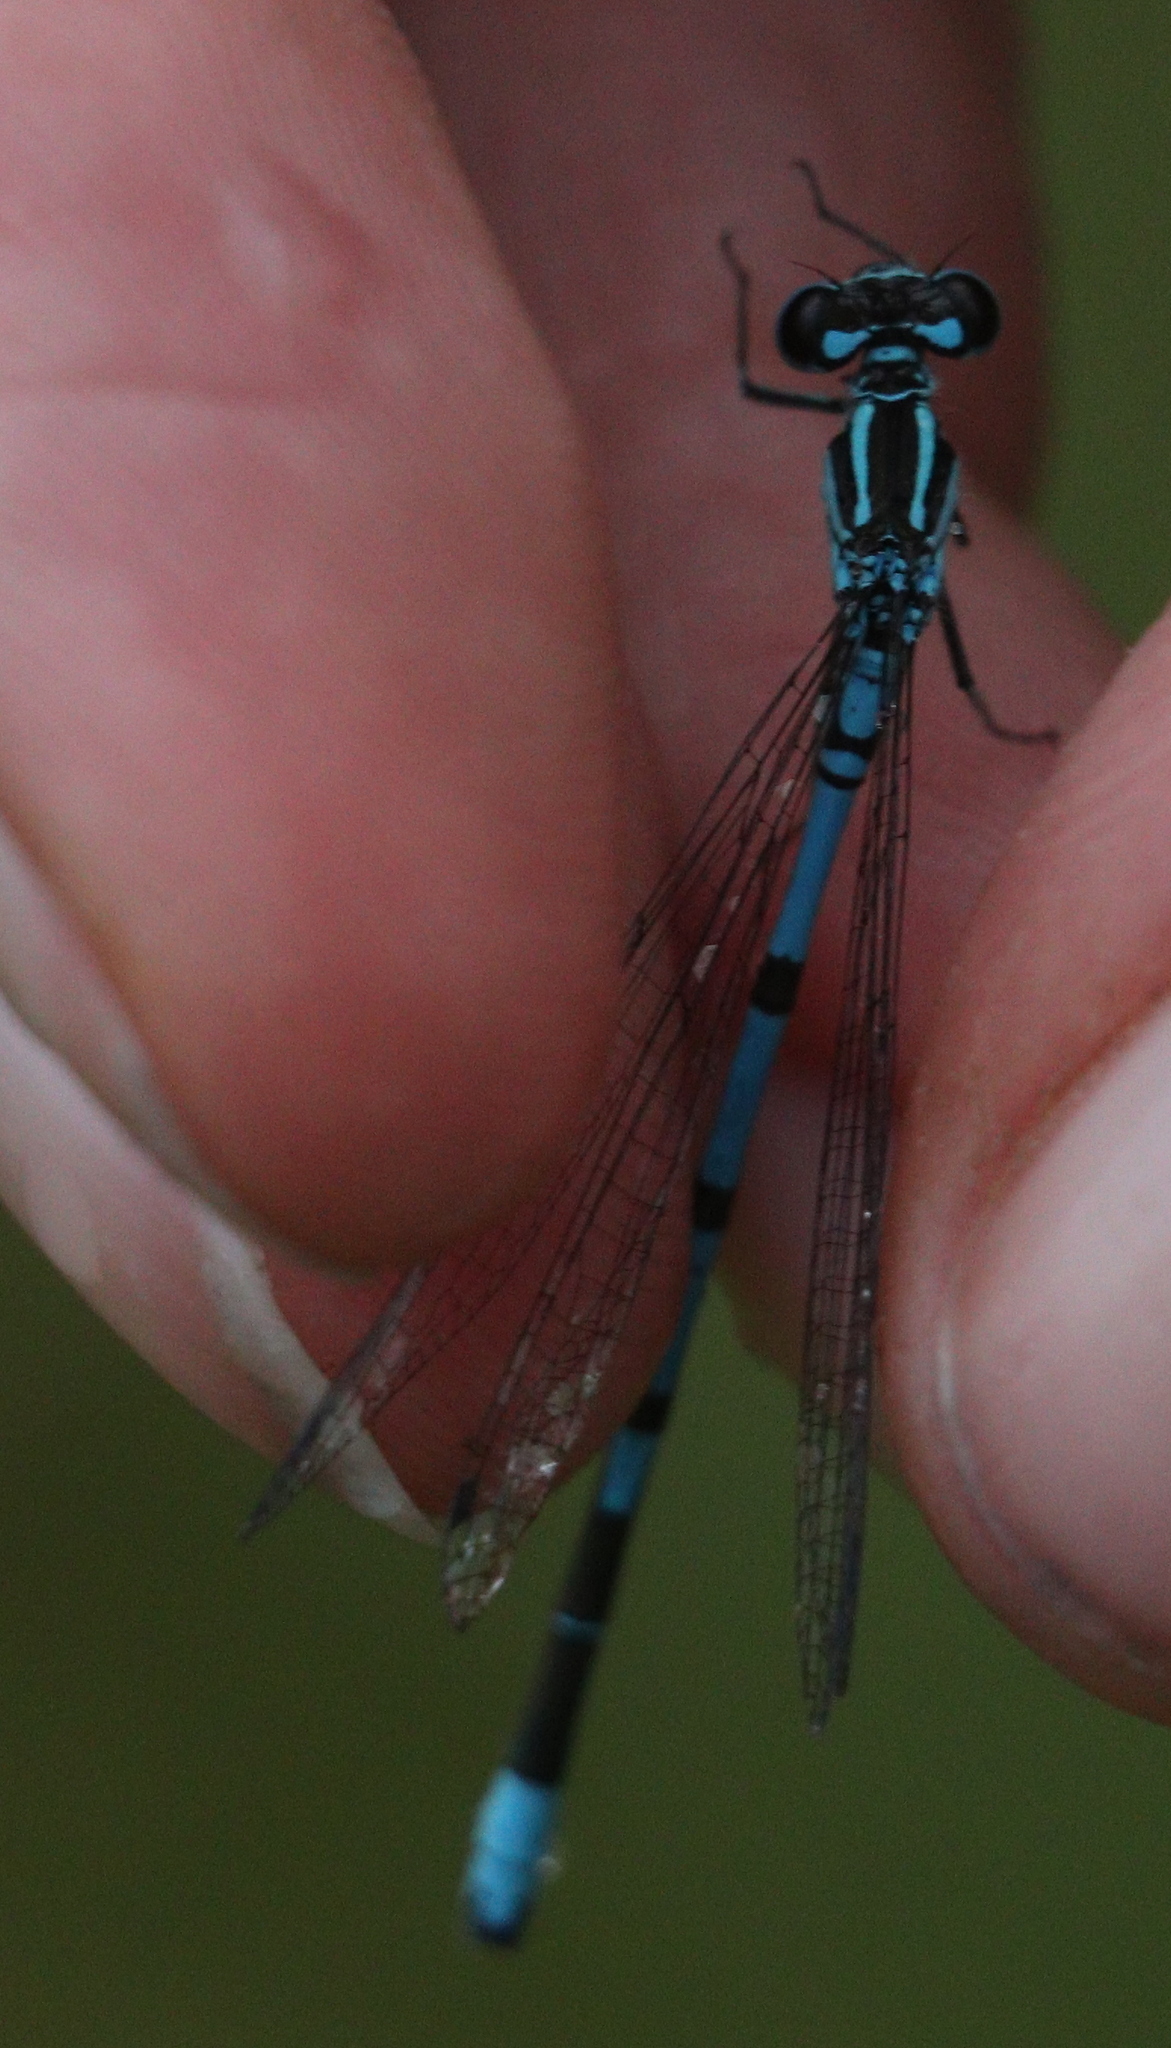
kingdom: Animalia
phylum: Arthropoda
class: Insecta
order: Odonata
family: Coenagrionidae
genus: Coenagrion
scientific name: Coenagrion puella
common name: Azure damselfly
